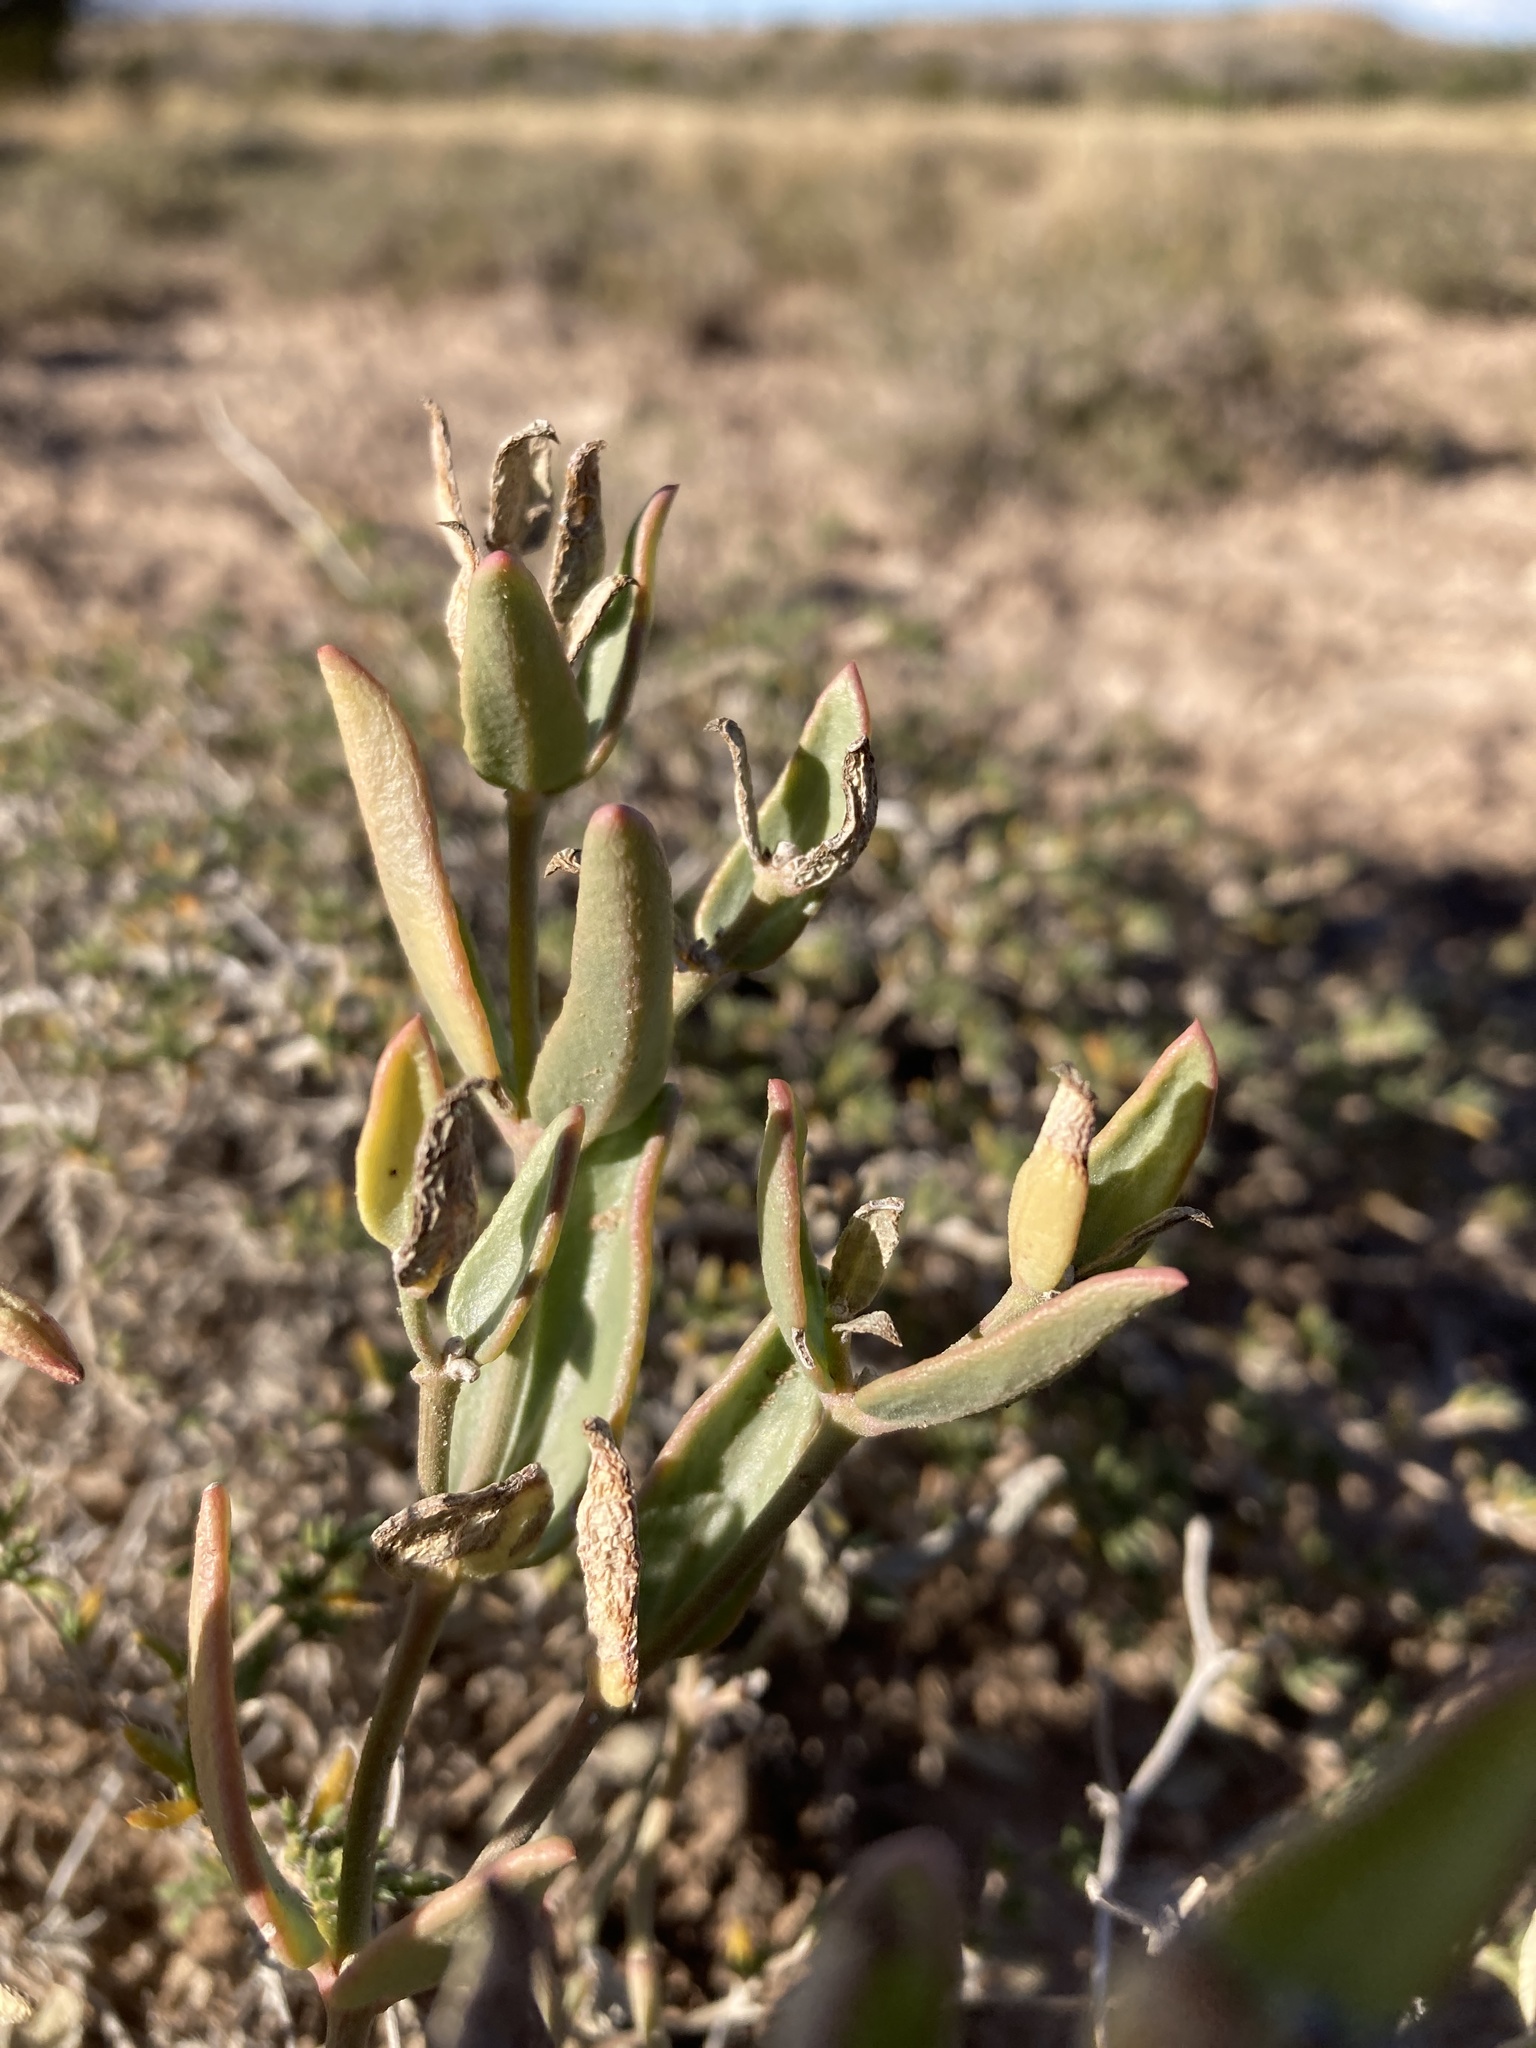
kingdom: Plantae
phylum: Tracheophyta
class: Magnoliopsida
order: Caryophyllales
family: Nyctaginaceae
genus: Acleisanthes
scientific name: Acleisanthes lanceolata
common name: Gypsum moonpod
